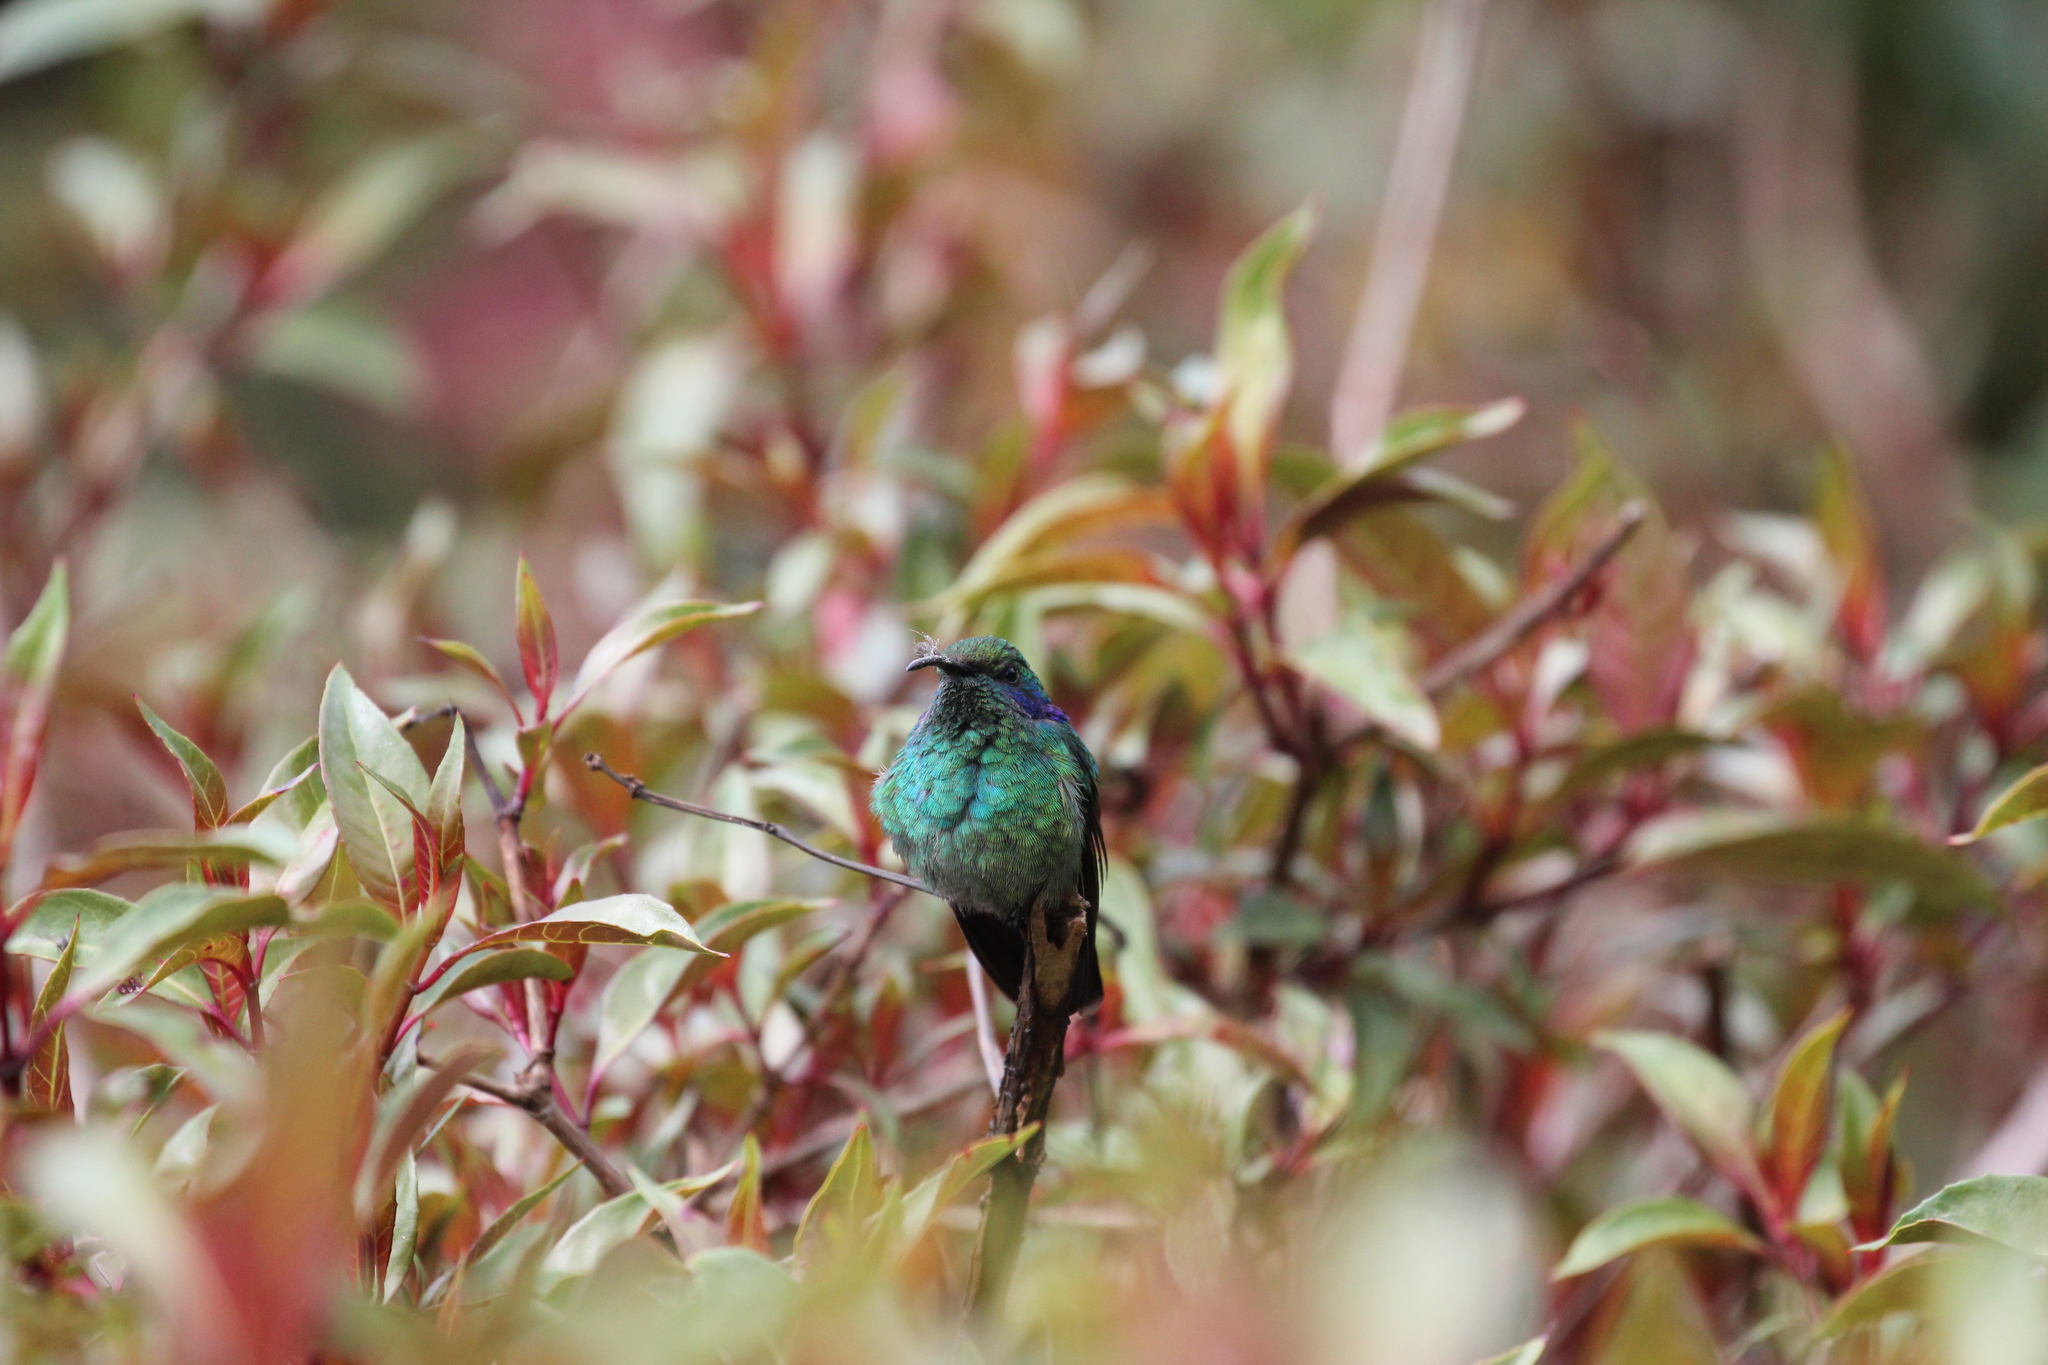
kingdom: Animalia
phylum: Chordata
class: Aves
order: Apodiformes
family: Trochilidae
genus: Colibri
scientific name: Colibri cyanotus
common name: Lesser violetear
